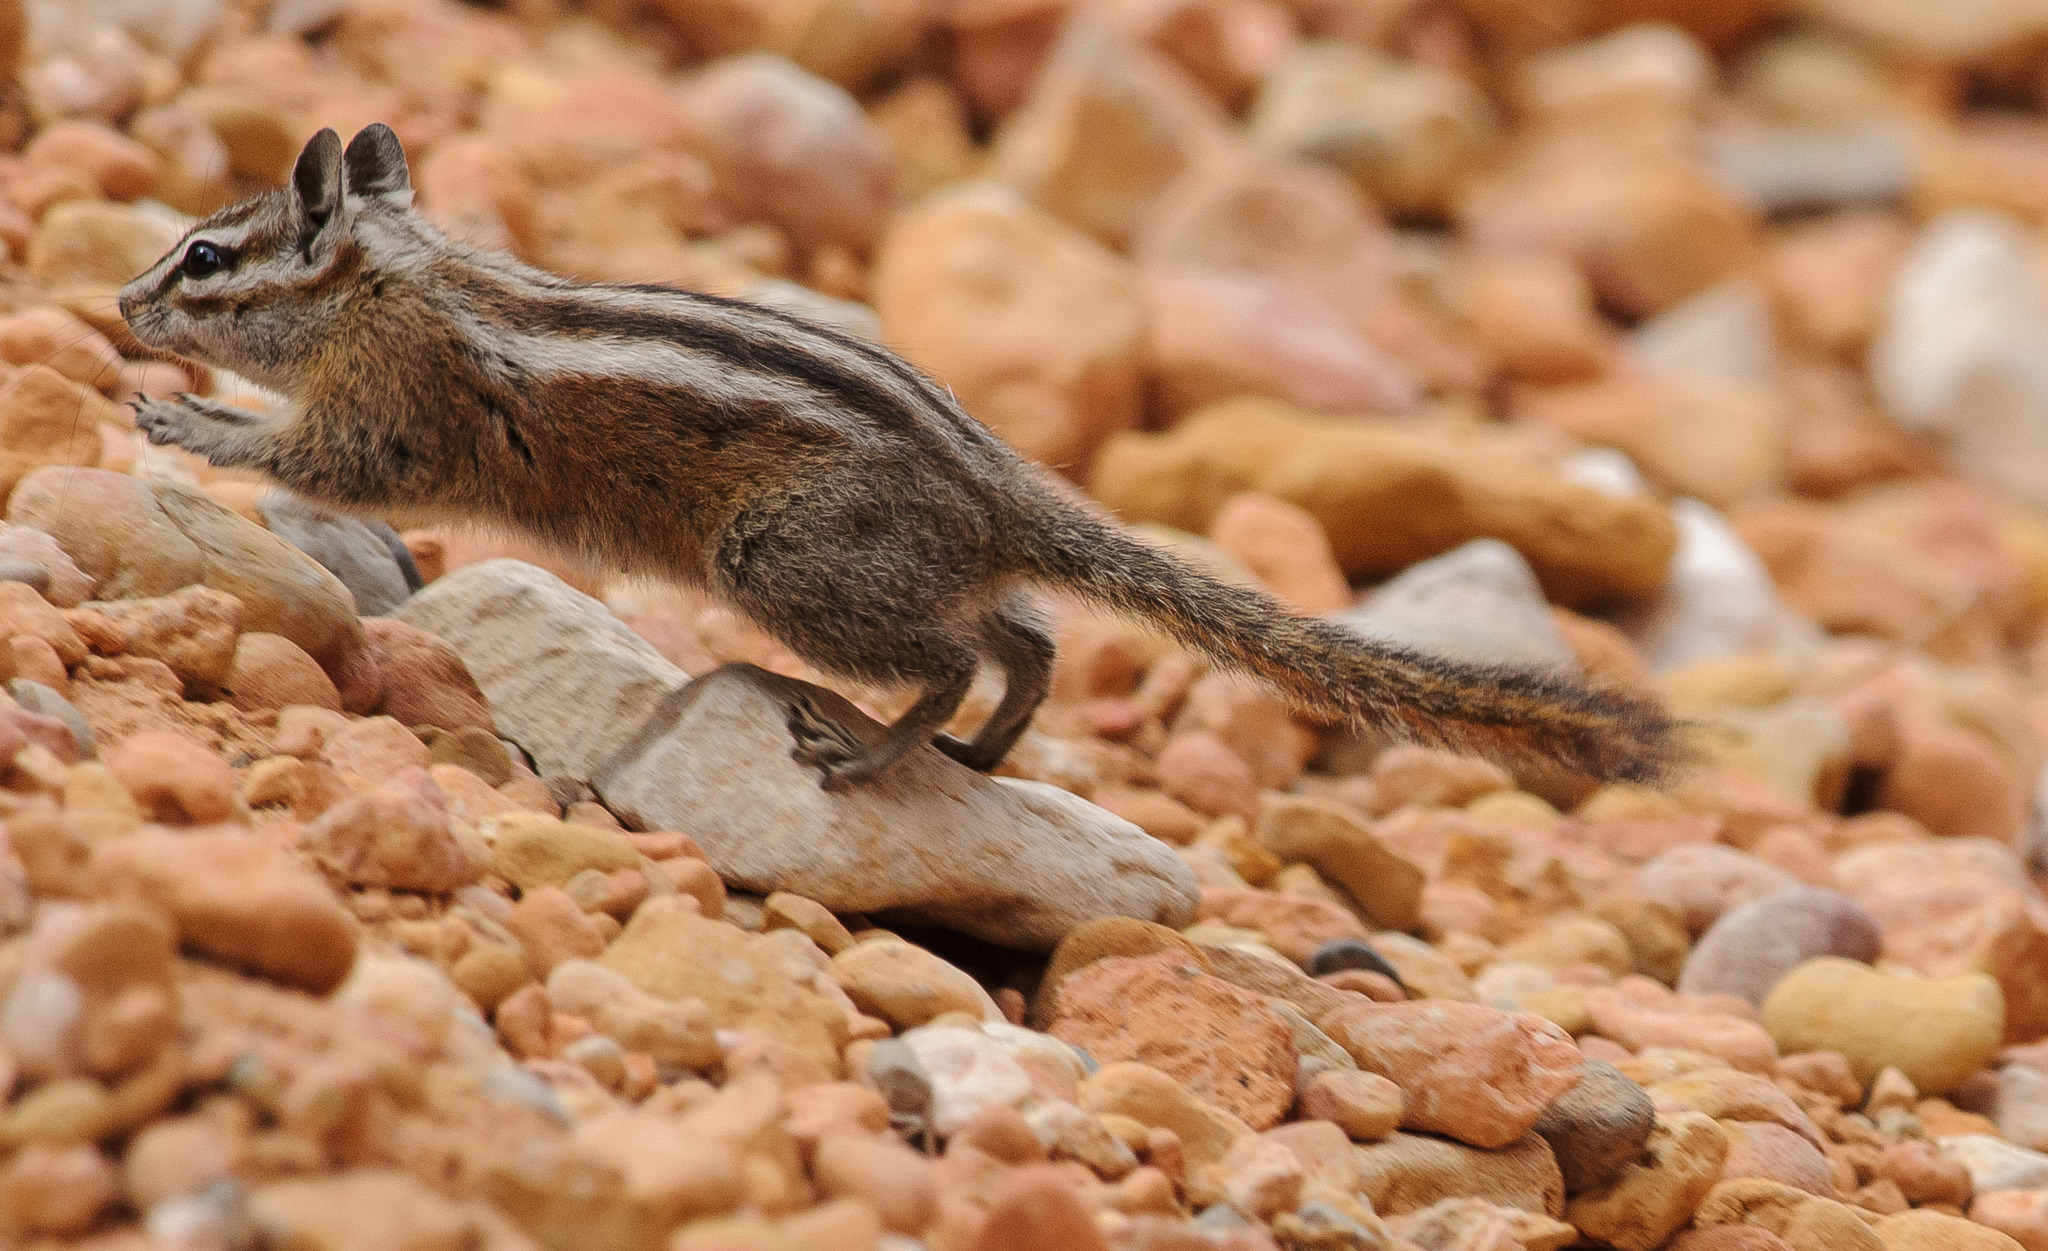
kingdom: Animalia
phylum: Chordata
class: Mammalia
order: Rodentia
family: Sciuridae
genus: Tamias
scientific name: Tamias umbrinus
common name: Uinta chipmunk
